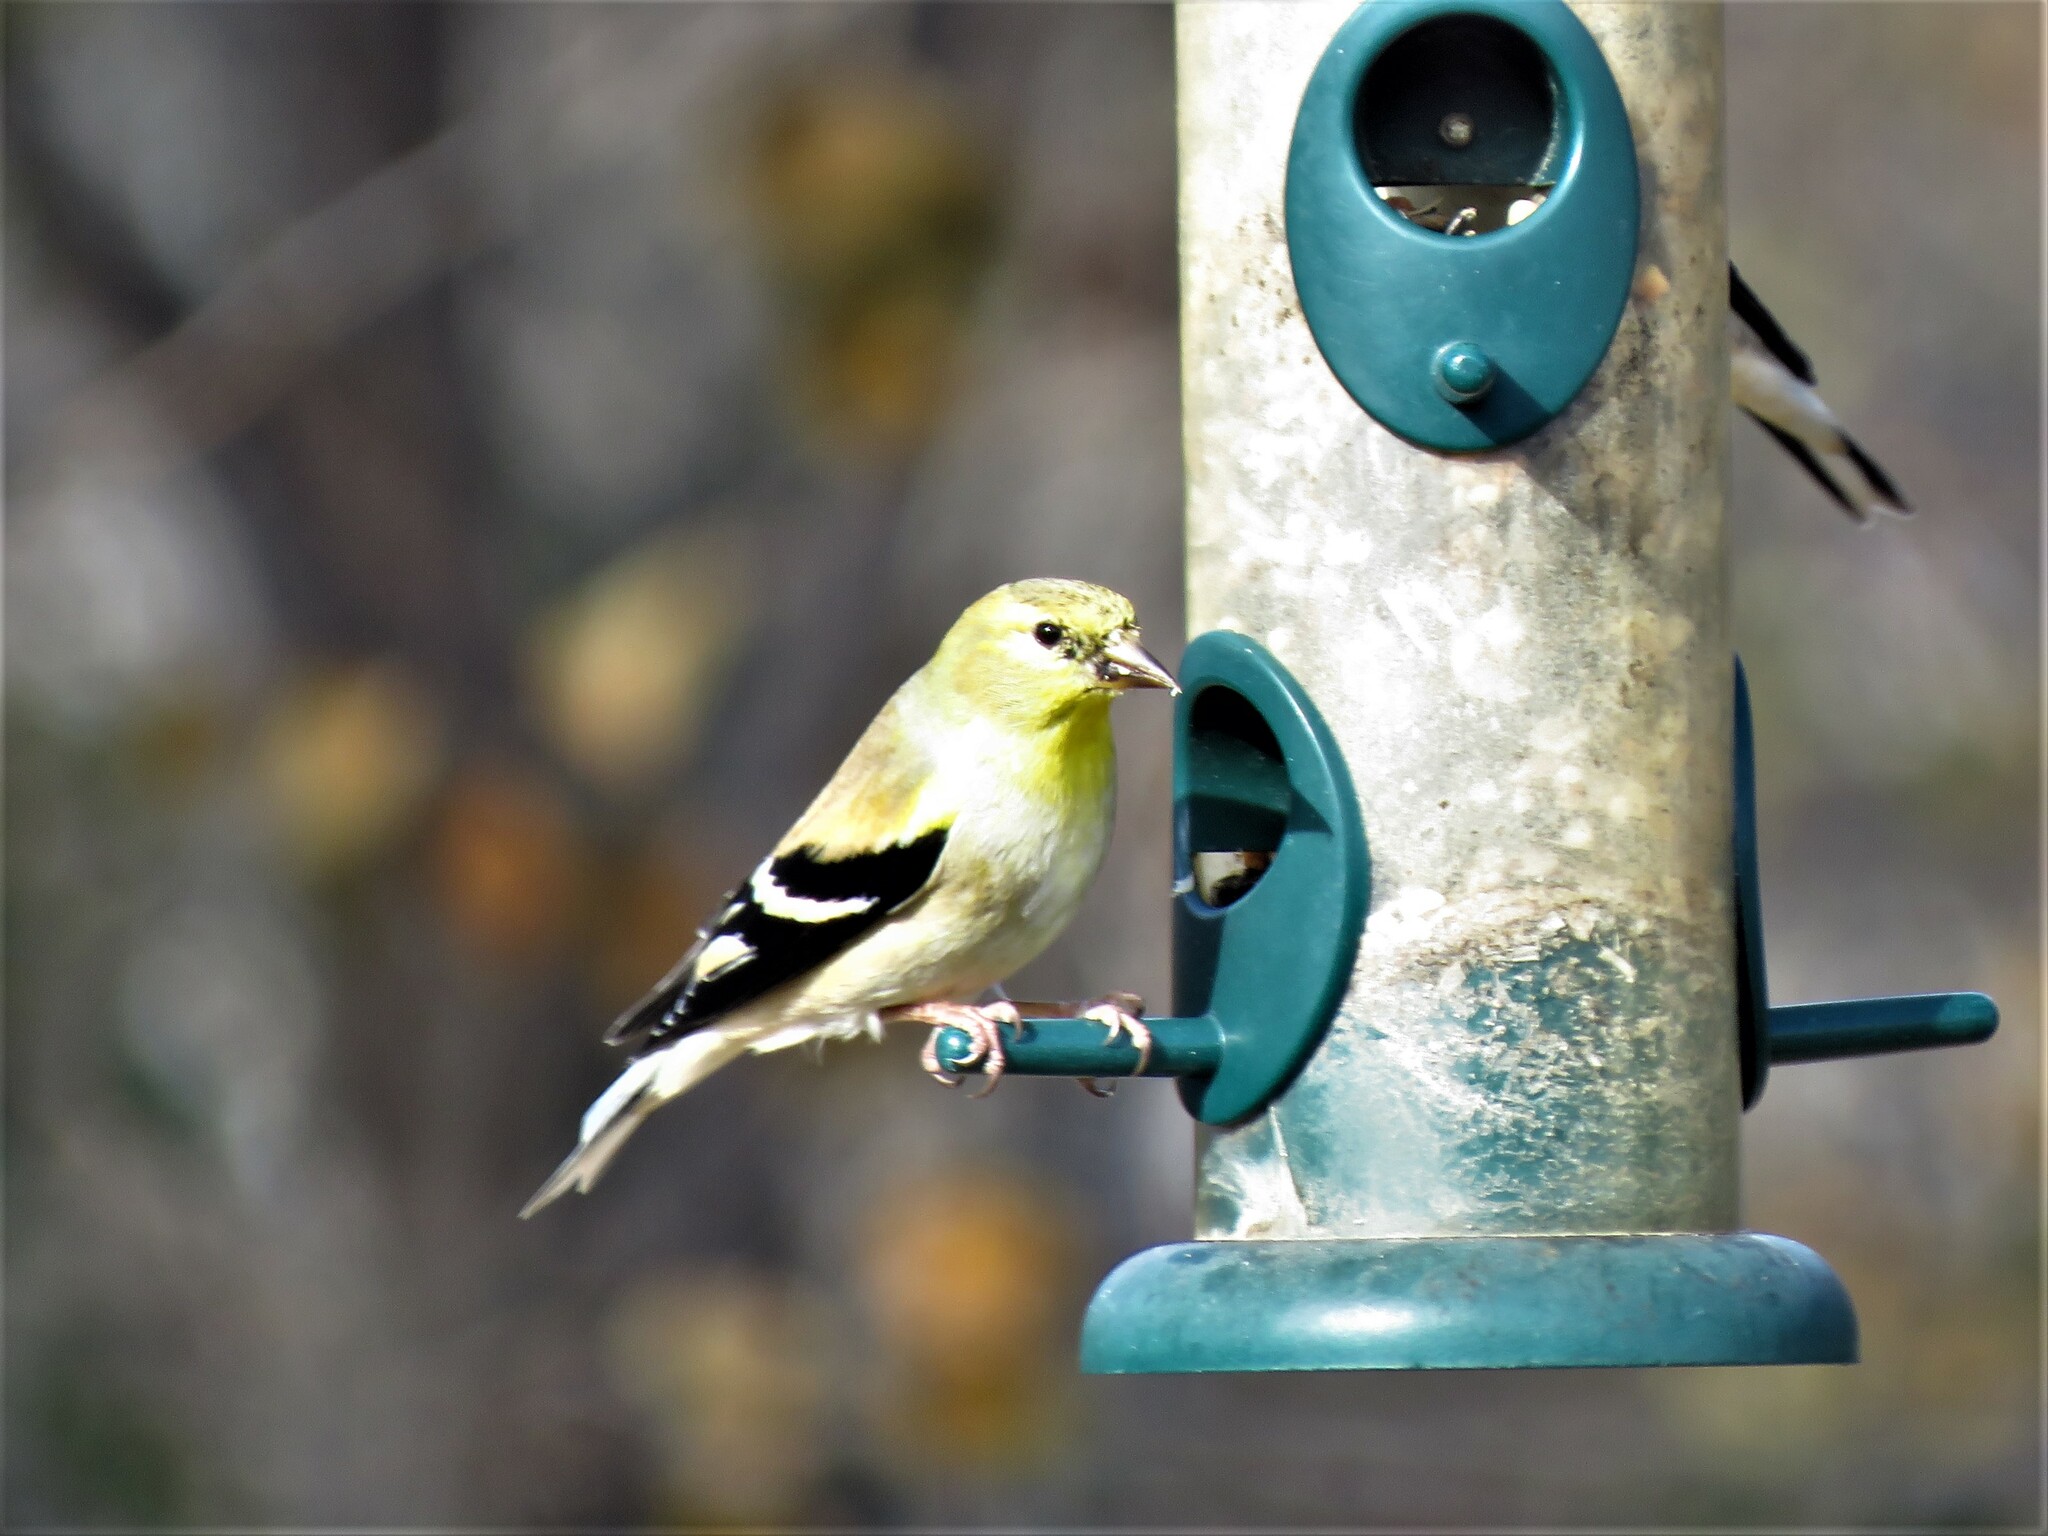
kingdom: Animalia
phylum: Chordata
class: Aves
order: Passeriformes
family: Fringillidae
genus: Spinus
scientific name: Spinus tristis
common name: American goldfinch
